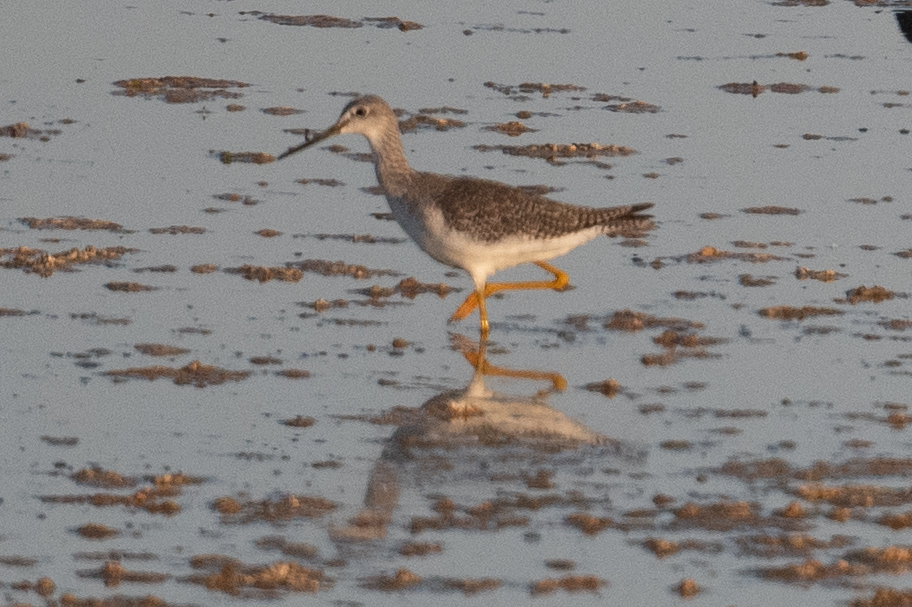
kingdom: Animalia
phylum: Chordata
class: Aves
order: Charadriiformes
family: Scolopacidae
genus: Tringa
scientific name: Tringa melanoleuca
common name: Greater yellowlegs
